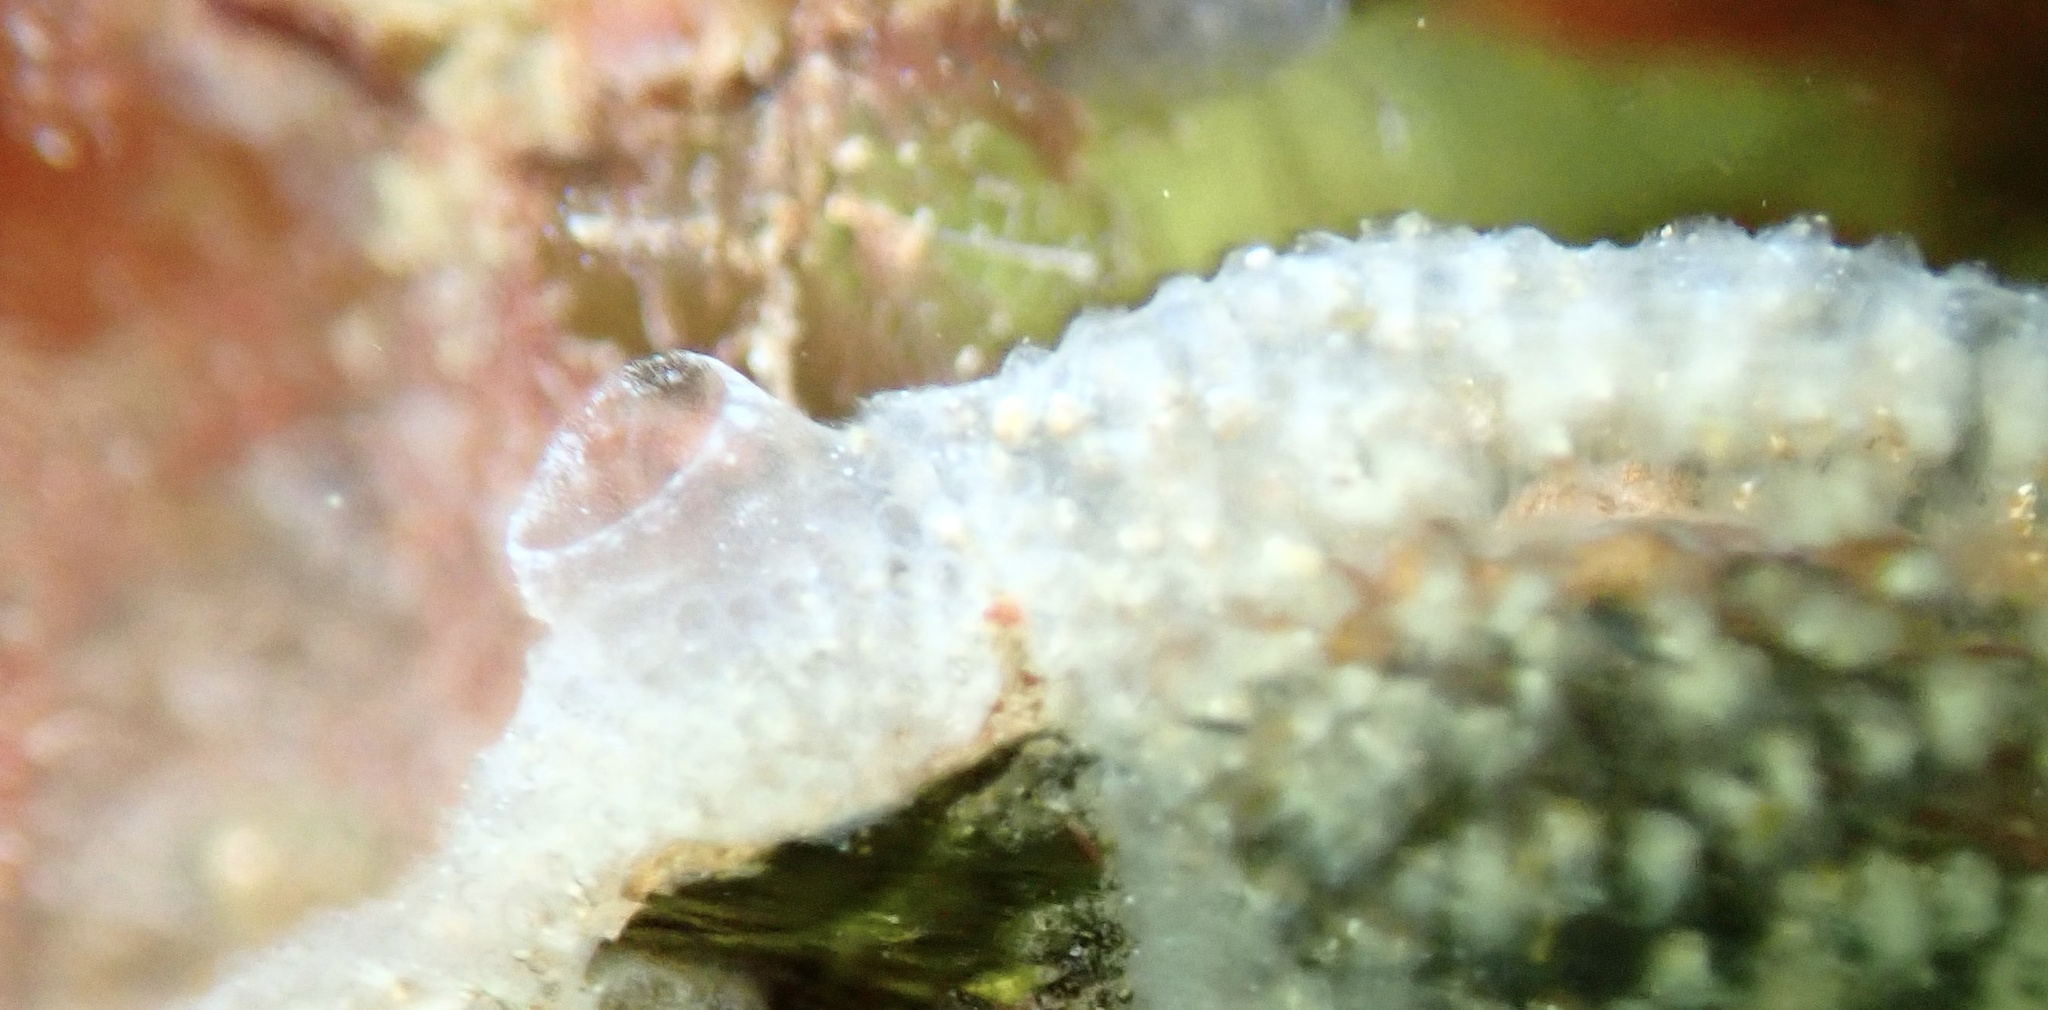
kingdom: Animalia
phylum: Chordata
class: Ascidiacea
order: Aplousobranchia
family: Didemnidae
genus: Diplosoma
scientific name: Diplosoma listerianum
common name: Compound sea squirt
